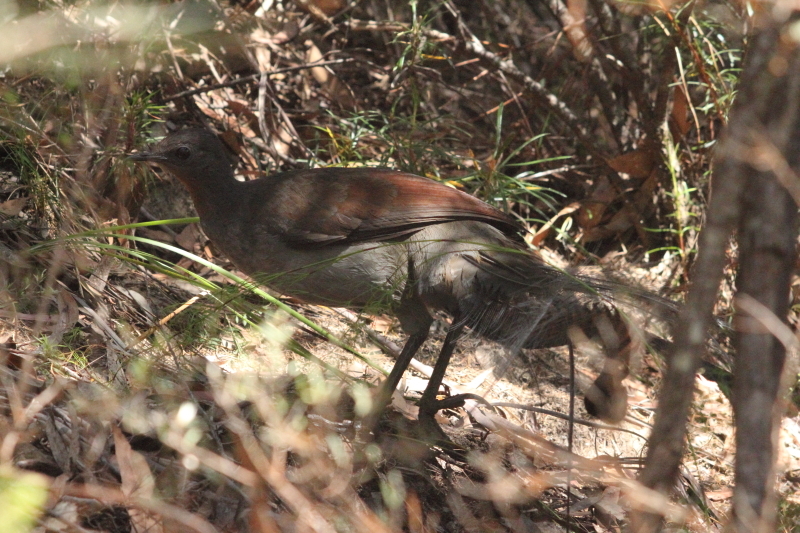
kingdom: Animalia
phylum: Chordata
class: Aves
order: Passeriformes
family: Menuridae
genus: Menura
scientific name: Menura novaehollandiae
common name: Superb lyrebird
